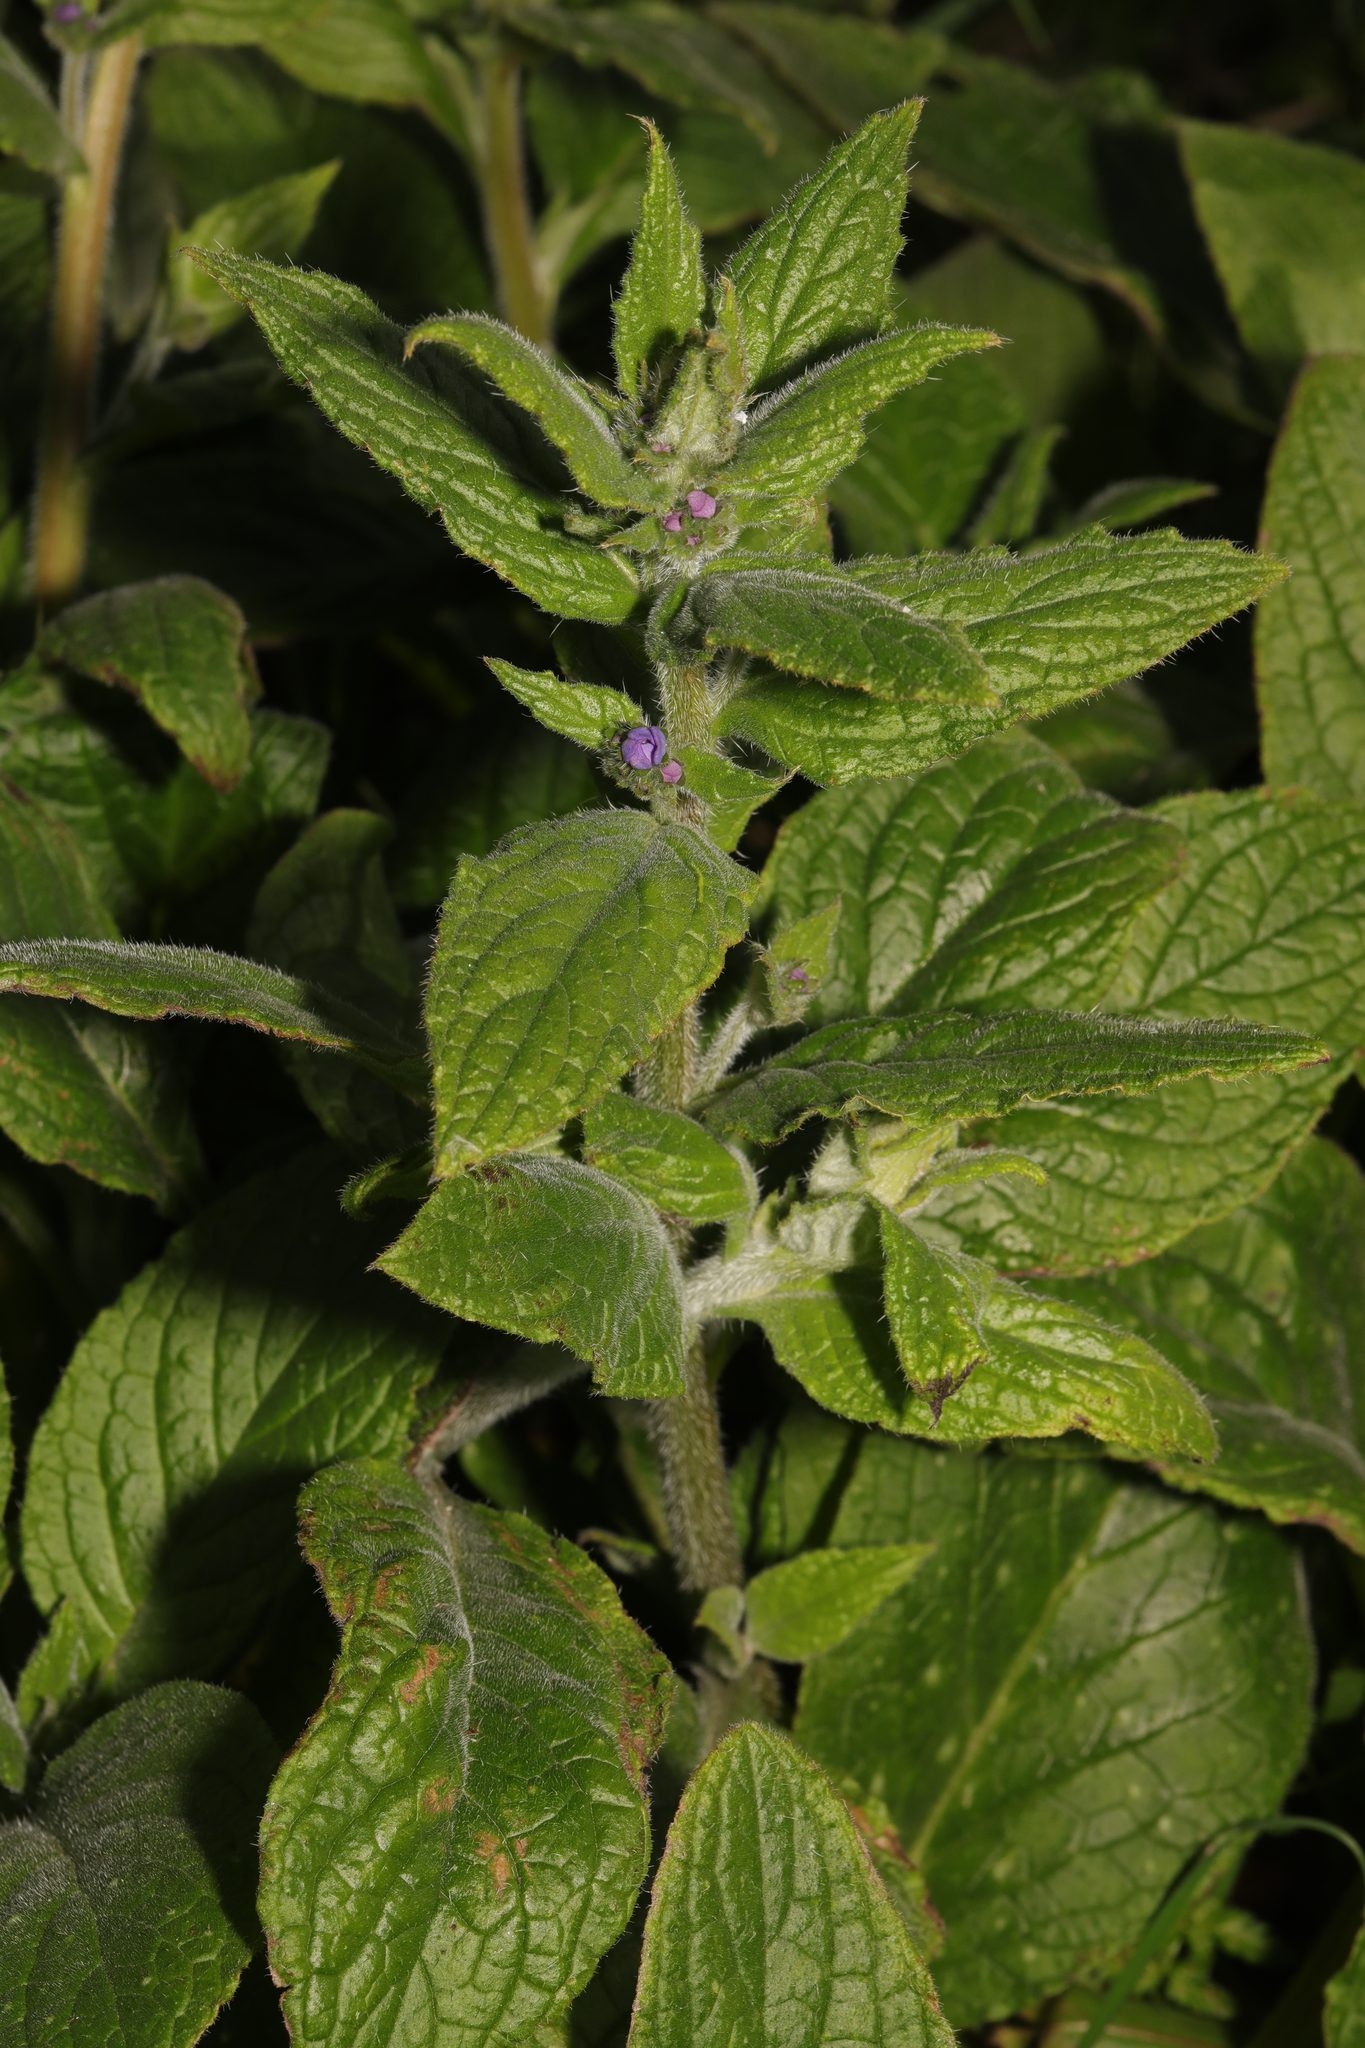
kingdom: Plantae
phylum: Tracheophyta
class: Magnoliopsida
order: Boraginales
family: Boraginaceae
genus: Pentaglottis
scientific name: Pentaglottis sempervirens
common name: Green alkanet
